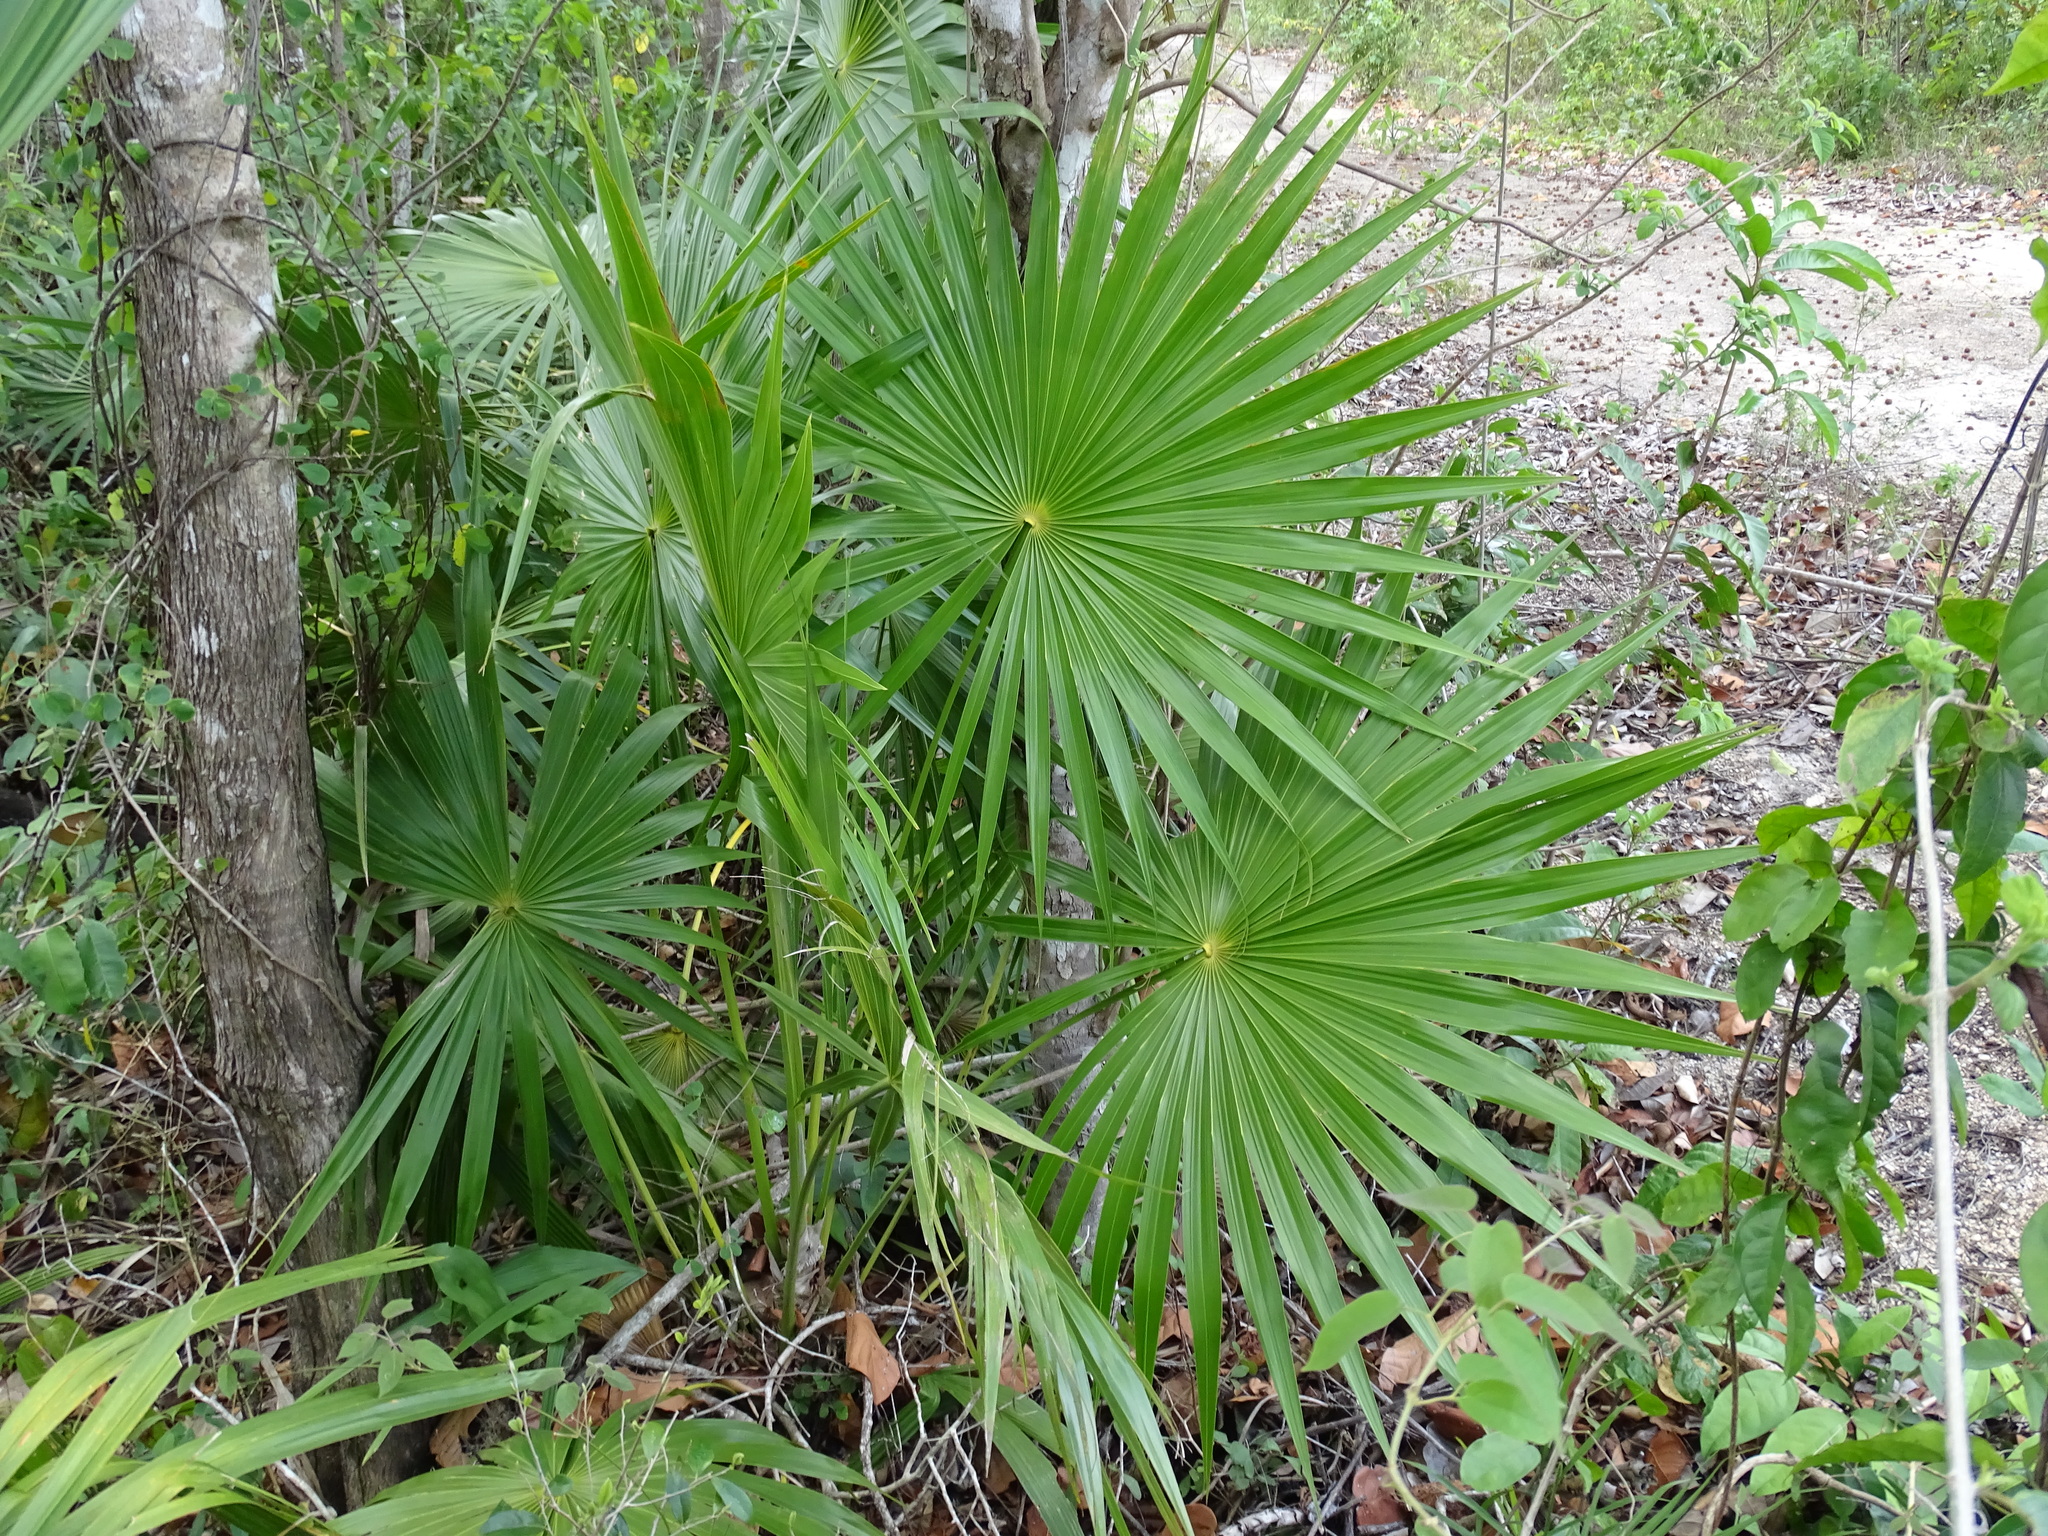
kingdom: Plantae
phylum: Tracheophyta
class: Liliopsida
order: Arecales
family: Arecaceae
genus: Thrinax
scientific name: Thrinax radiata
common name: Florida thatch
